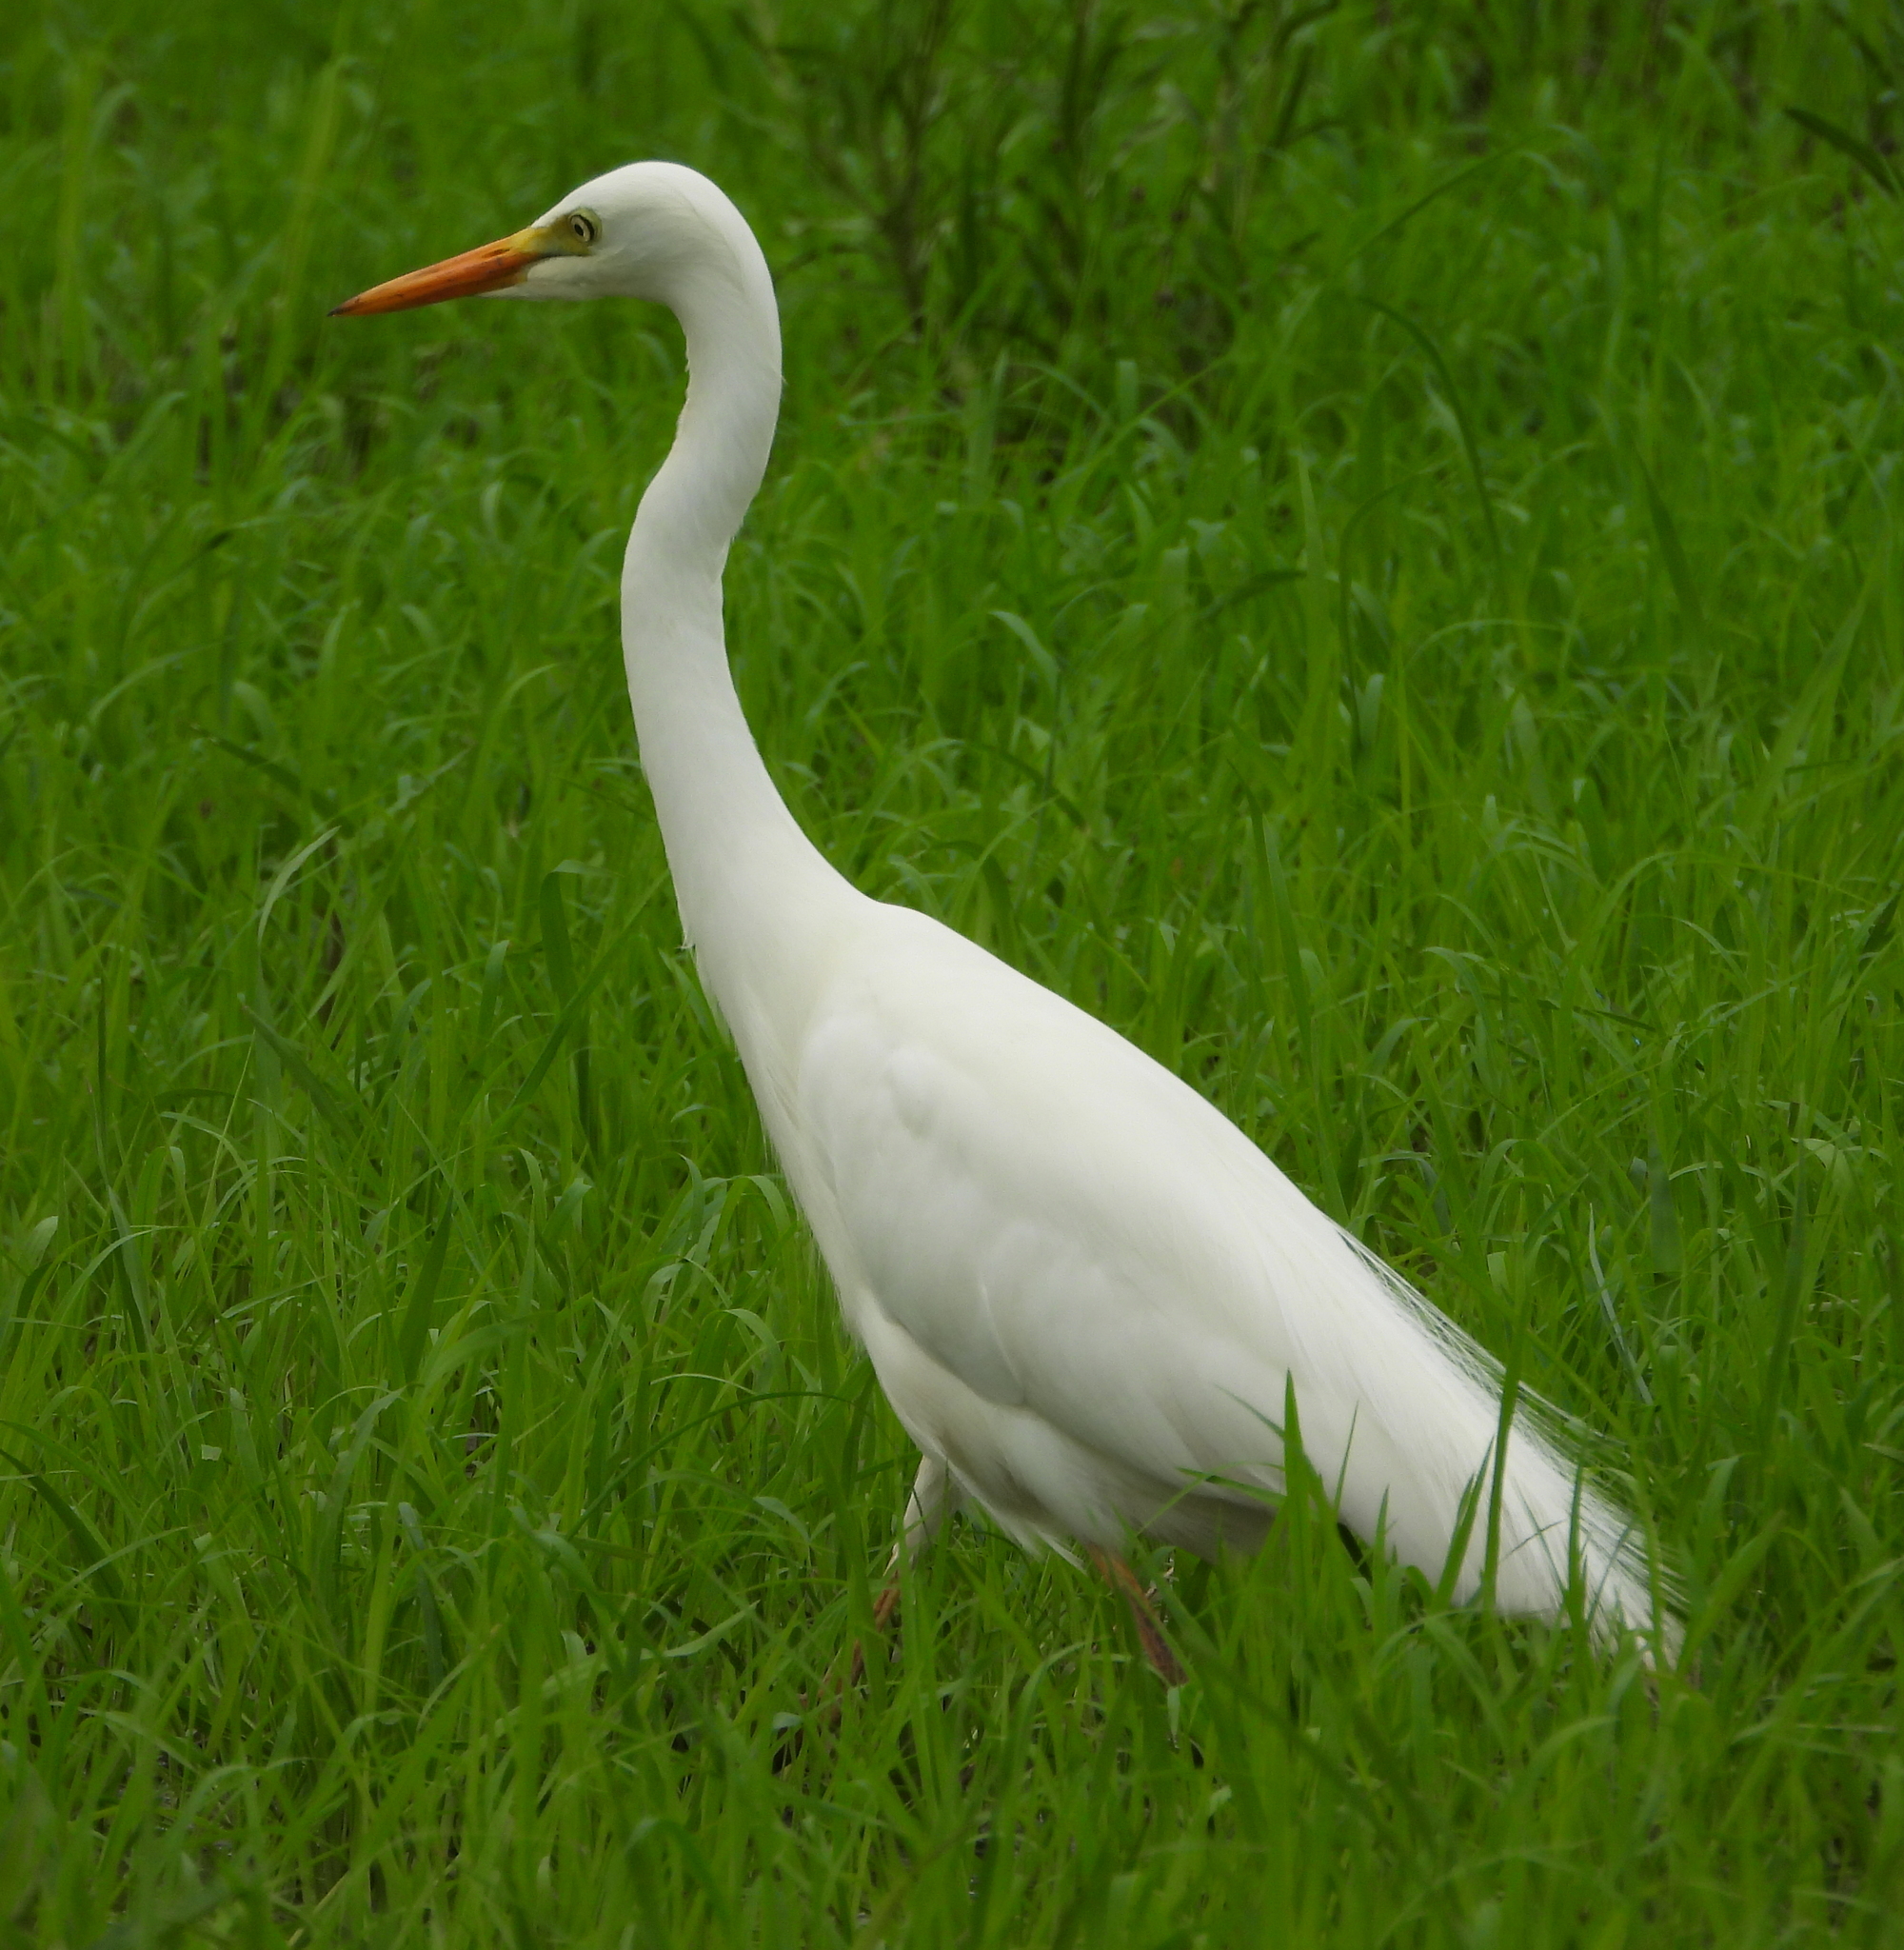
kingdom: Animalia
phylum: Chordata
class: Aves
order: Pelecaniformes
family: Ardeidae
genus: Egretta
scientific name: Egretta intermedia
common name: Intermediate egret
